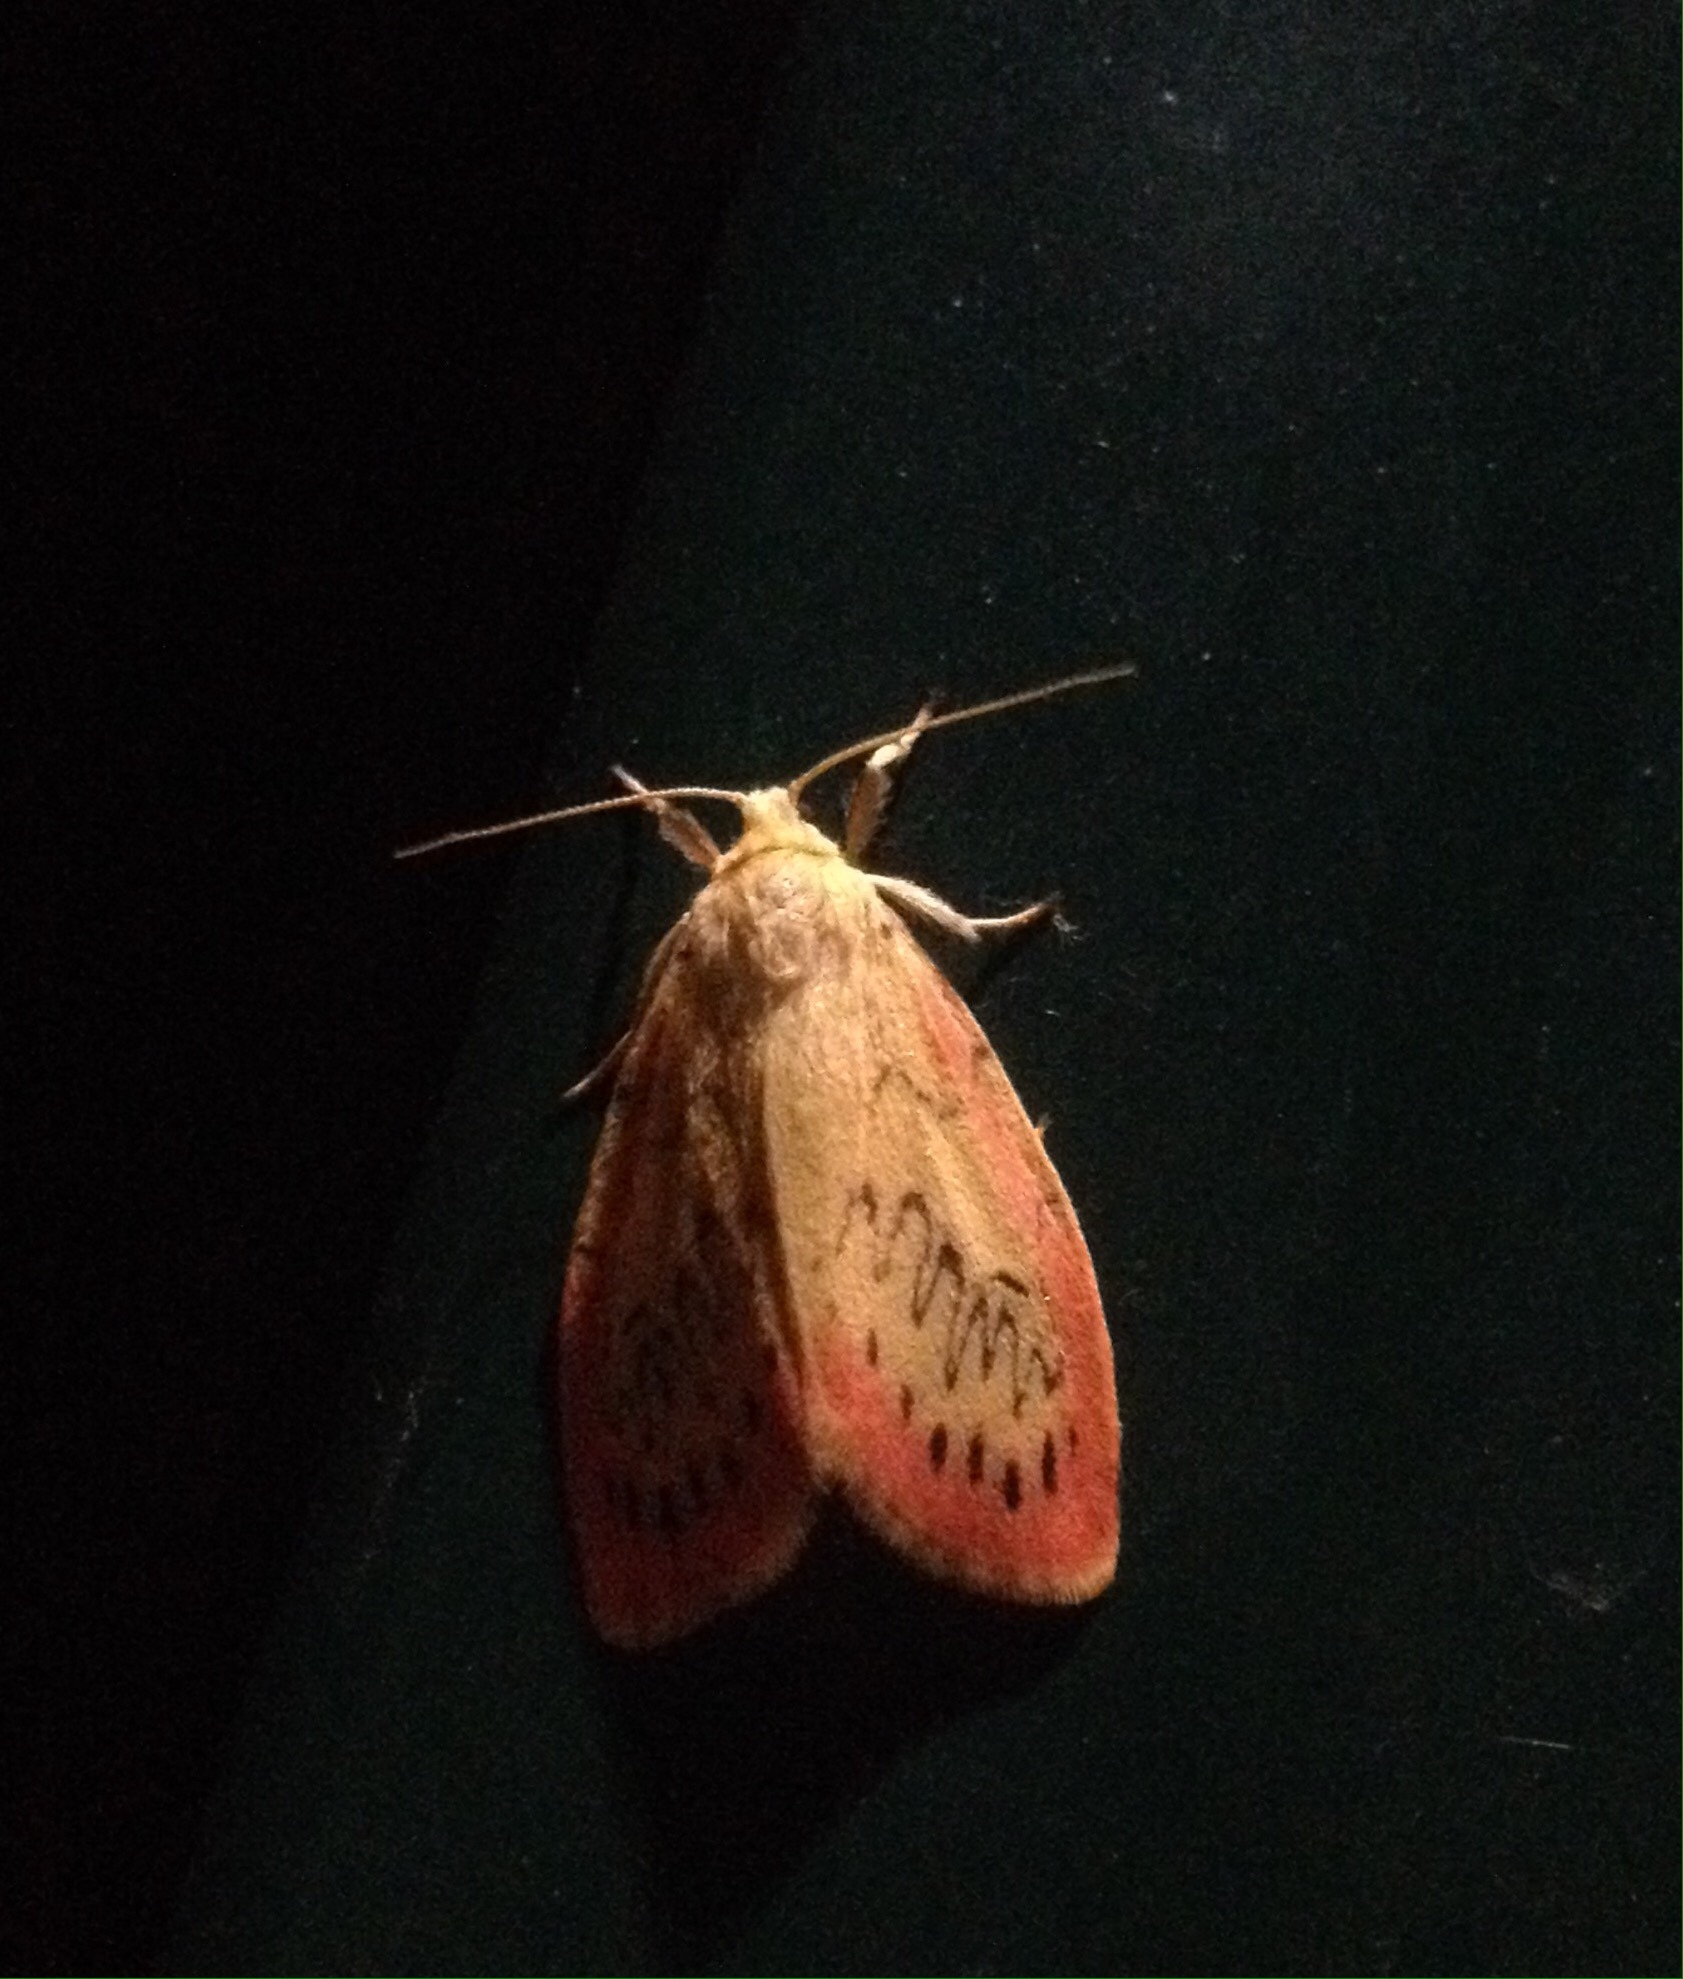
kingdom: Animalia
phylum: Arthropoda
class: Insecta
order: Lepidoptera
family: Erebidae
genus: Miltochrista
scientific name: Miltochrista miniata
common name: Rosy footman
